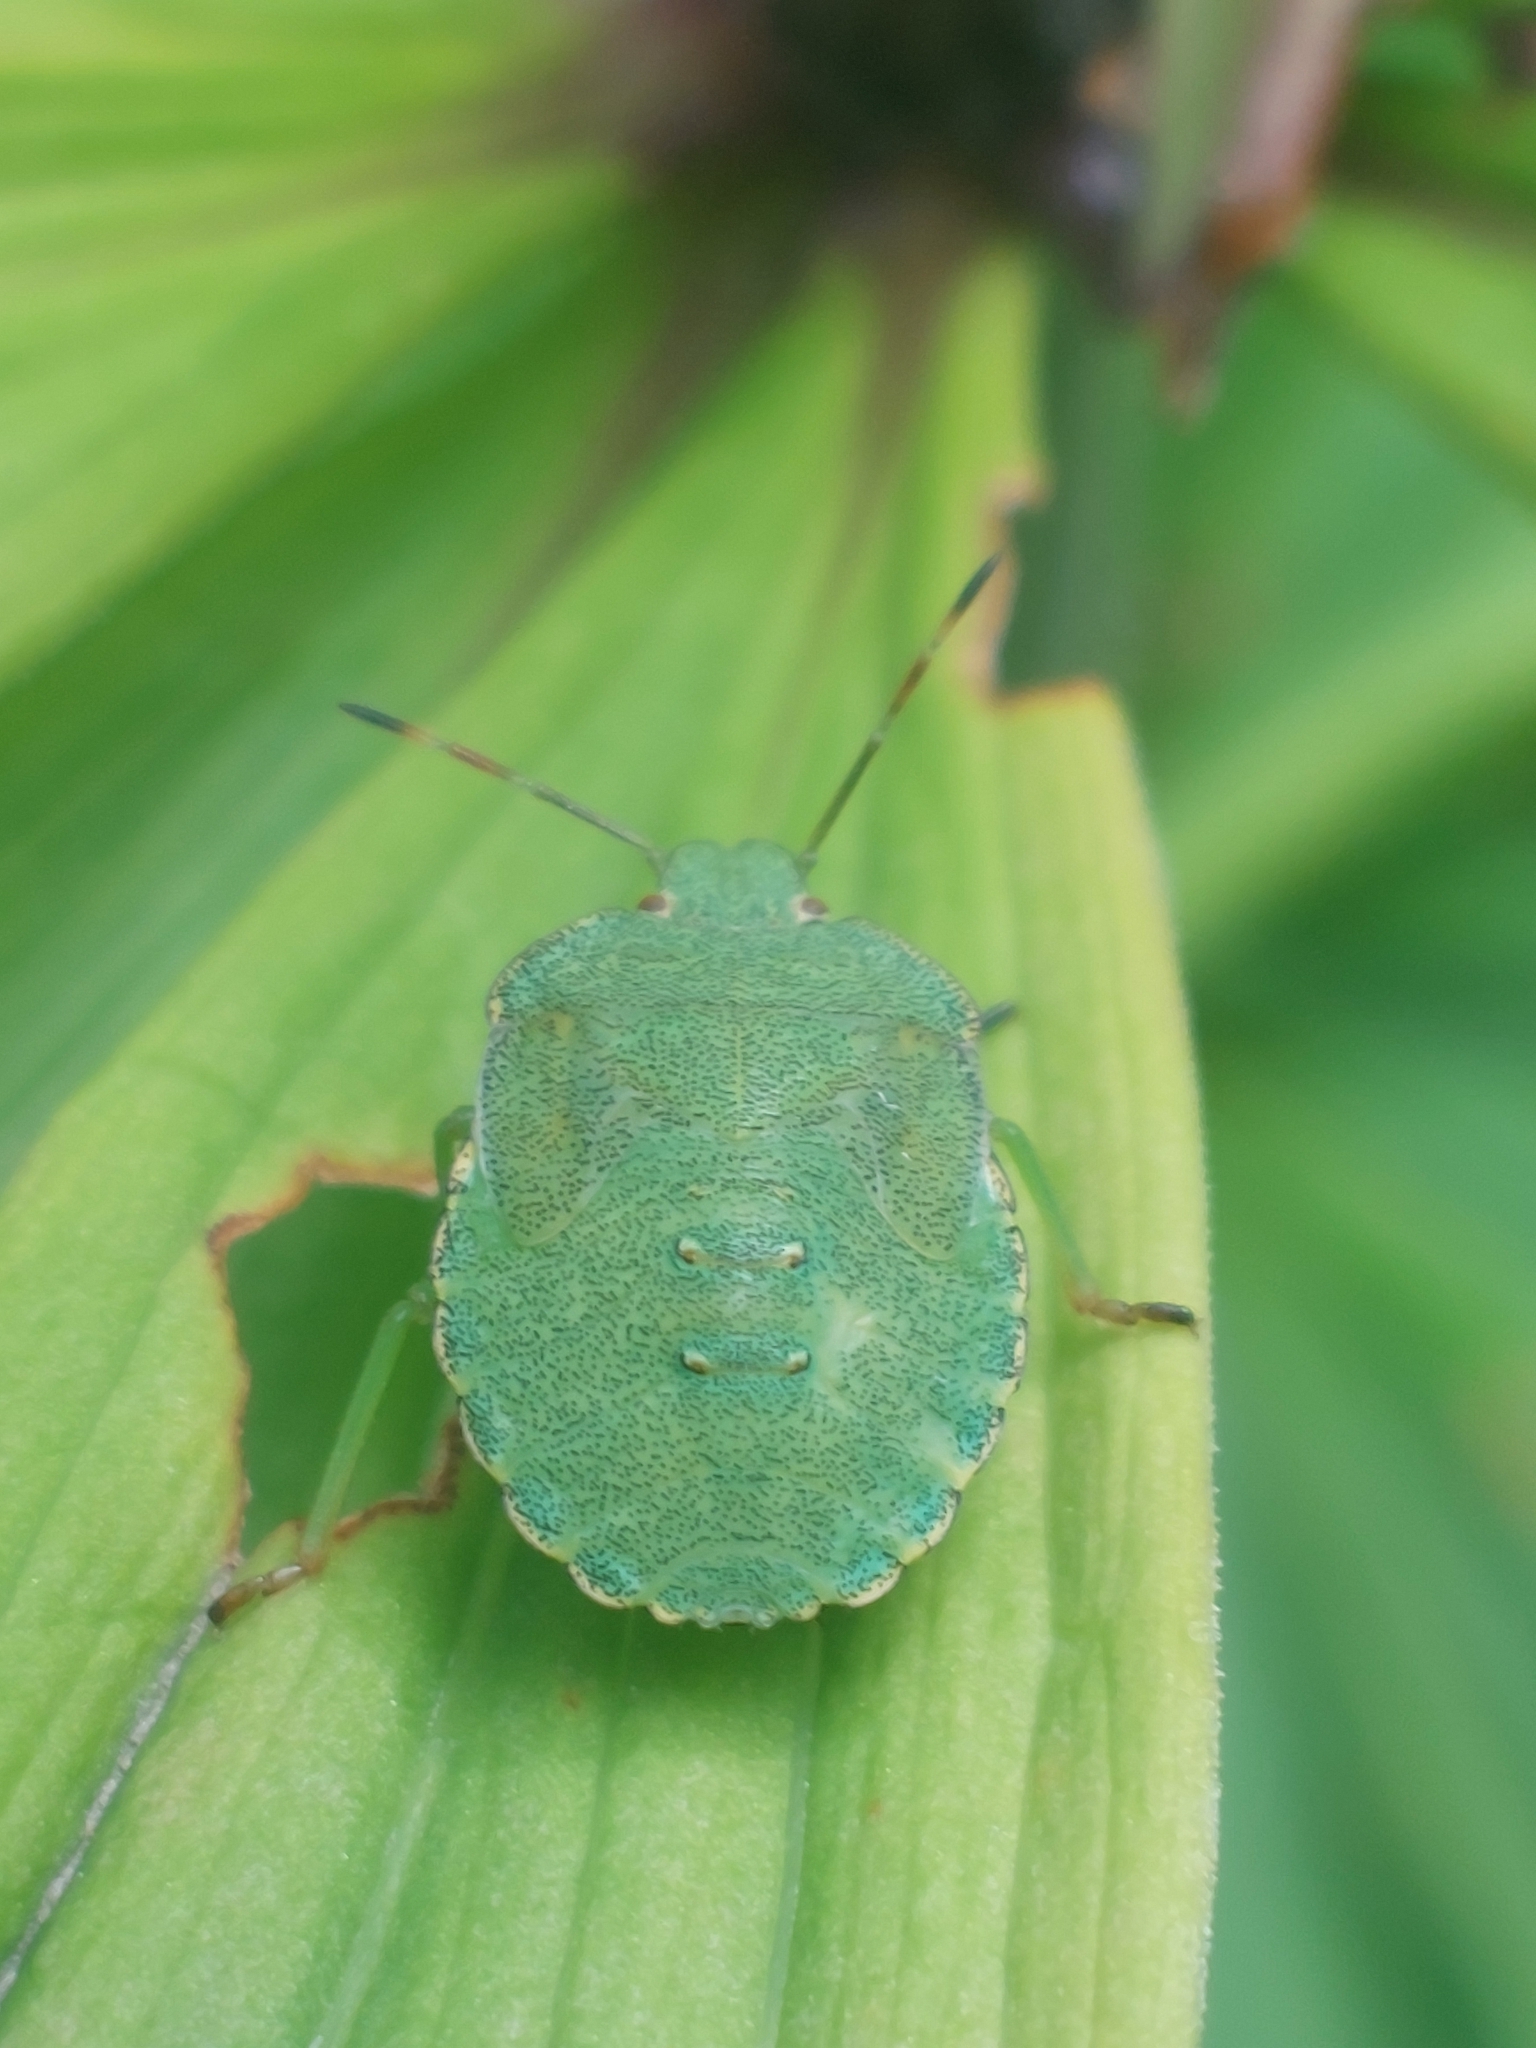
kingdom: Animalia
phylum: Arthropoda
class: Insecta
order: Hemiptera
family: Pentatomidae
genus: Palomena
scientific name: Palomena prasina
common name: Green shieldbug
